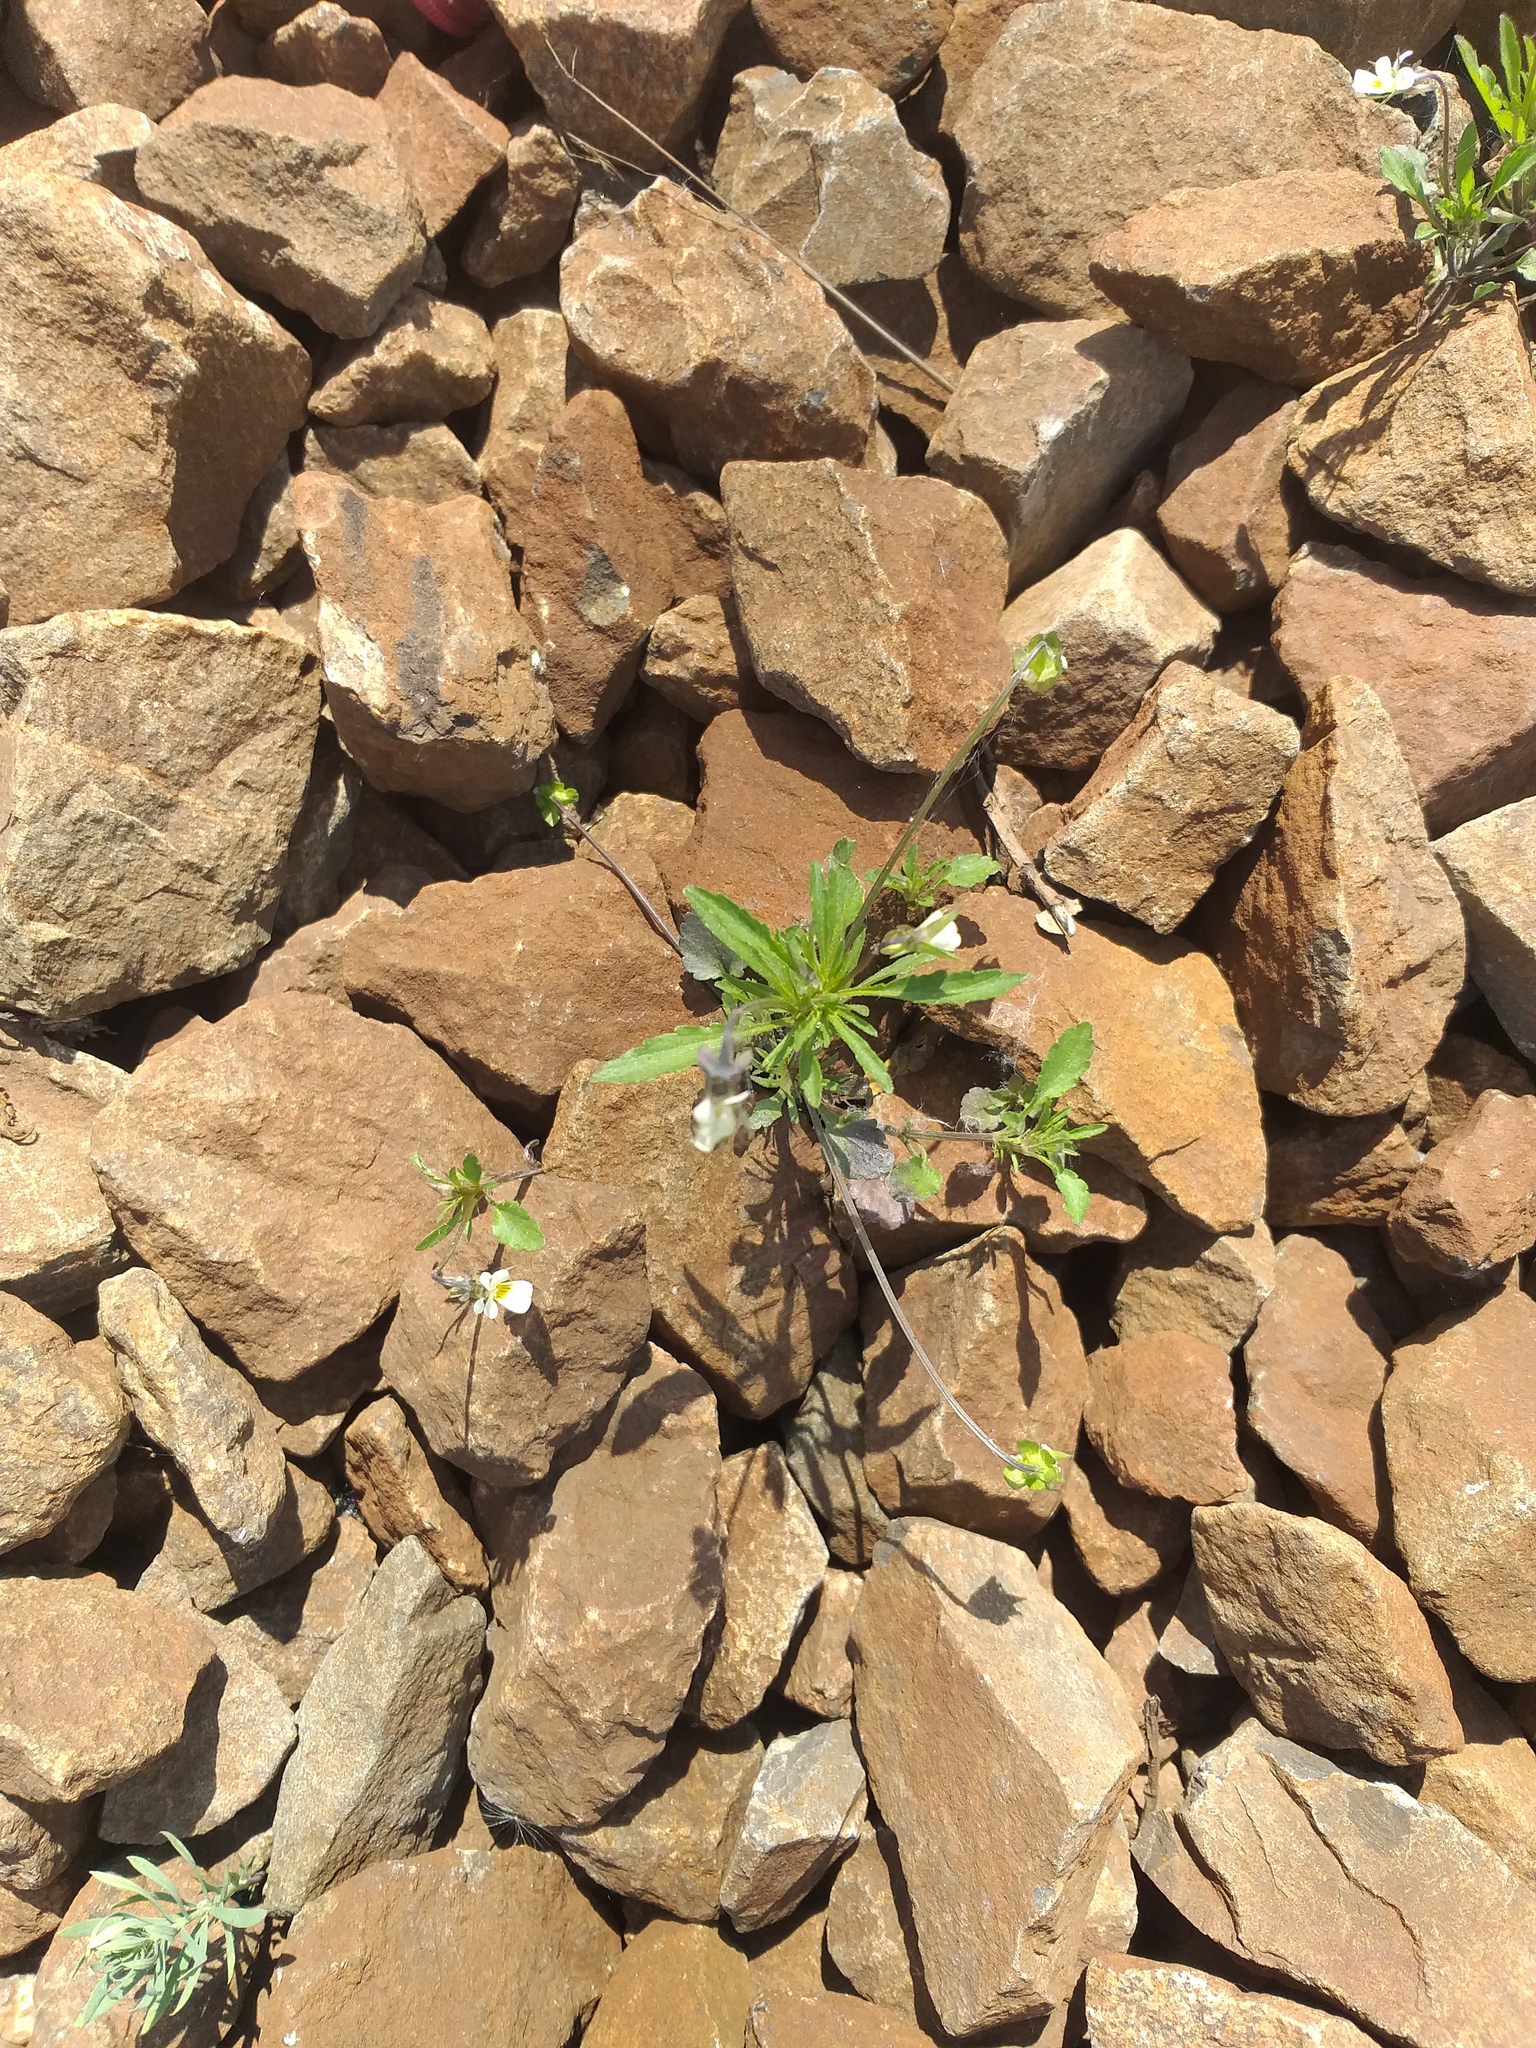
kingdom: Plantae
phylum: Tracheophyta
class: Magnoliopsida
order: Malpighiales
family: Violaceae
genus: Viola
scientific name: Viola arvensis
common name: Field pansy
